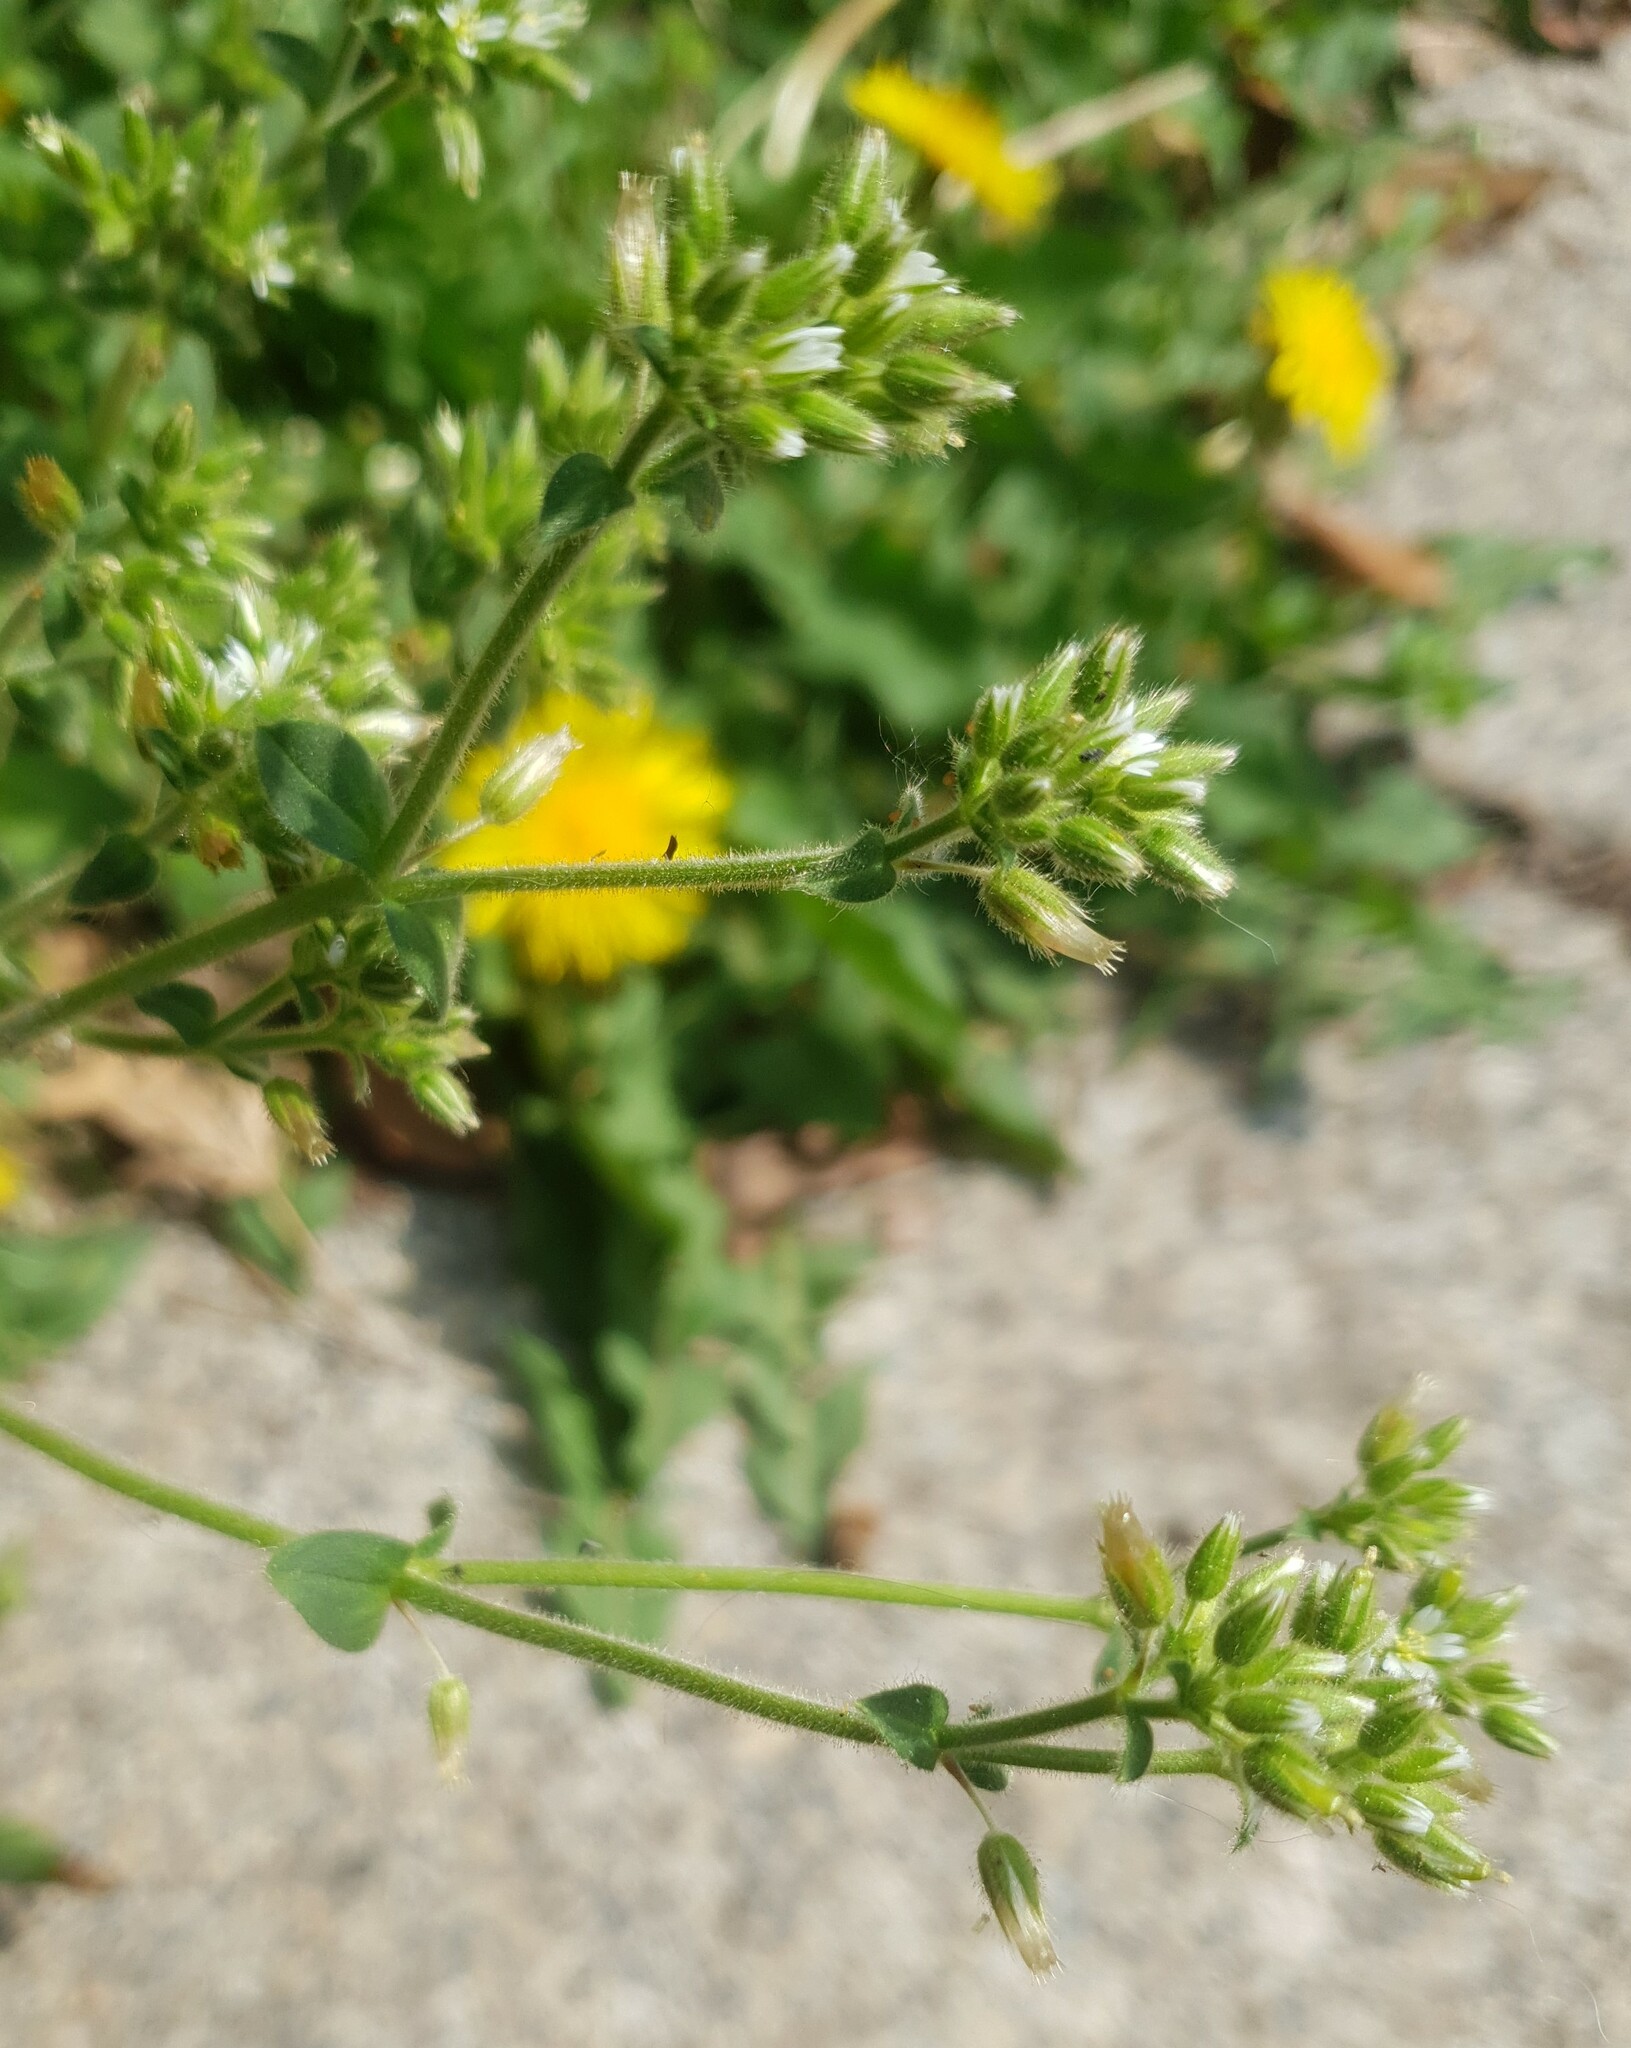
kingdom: Plantae
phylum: Tracheophyta
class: Magnoliopsida
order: Caryophyllales
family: Caryophyllaceae
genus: Cerastium
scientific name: Cerastium glomeratum
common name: Sticky chickweed
